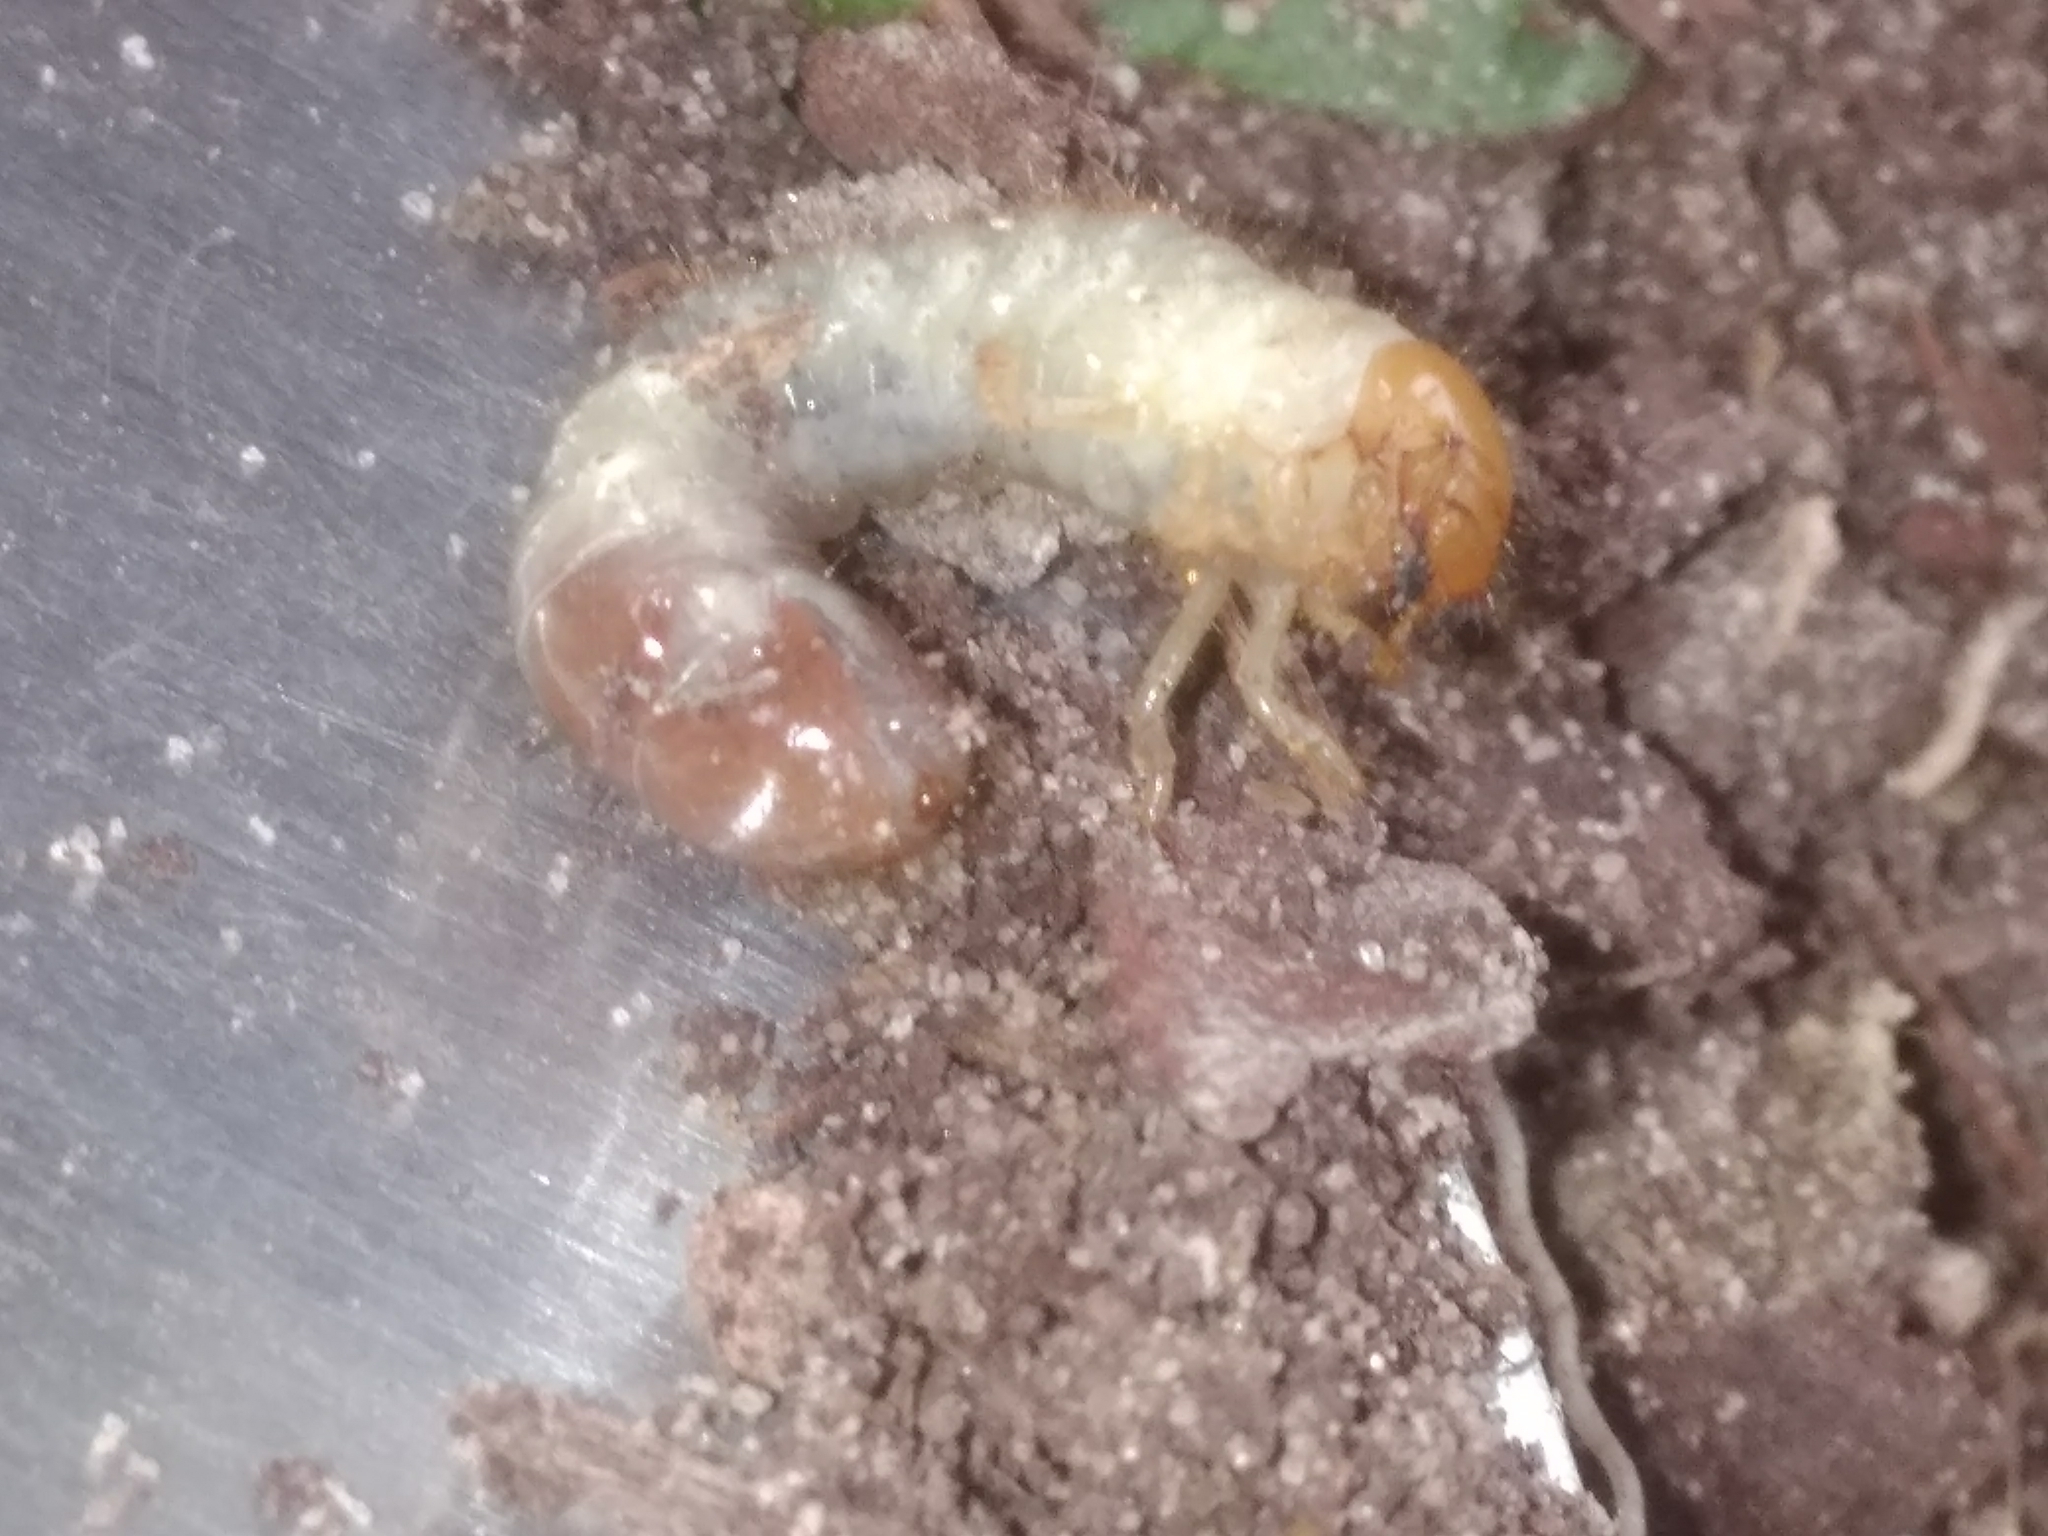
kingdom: Animalia
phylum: Arthropoda
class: Insecta
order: Coleoptera
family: Scarabaeidae
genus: Popillia
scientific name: Popillia japonica
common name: Japanese beetle
